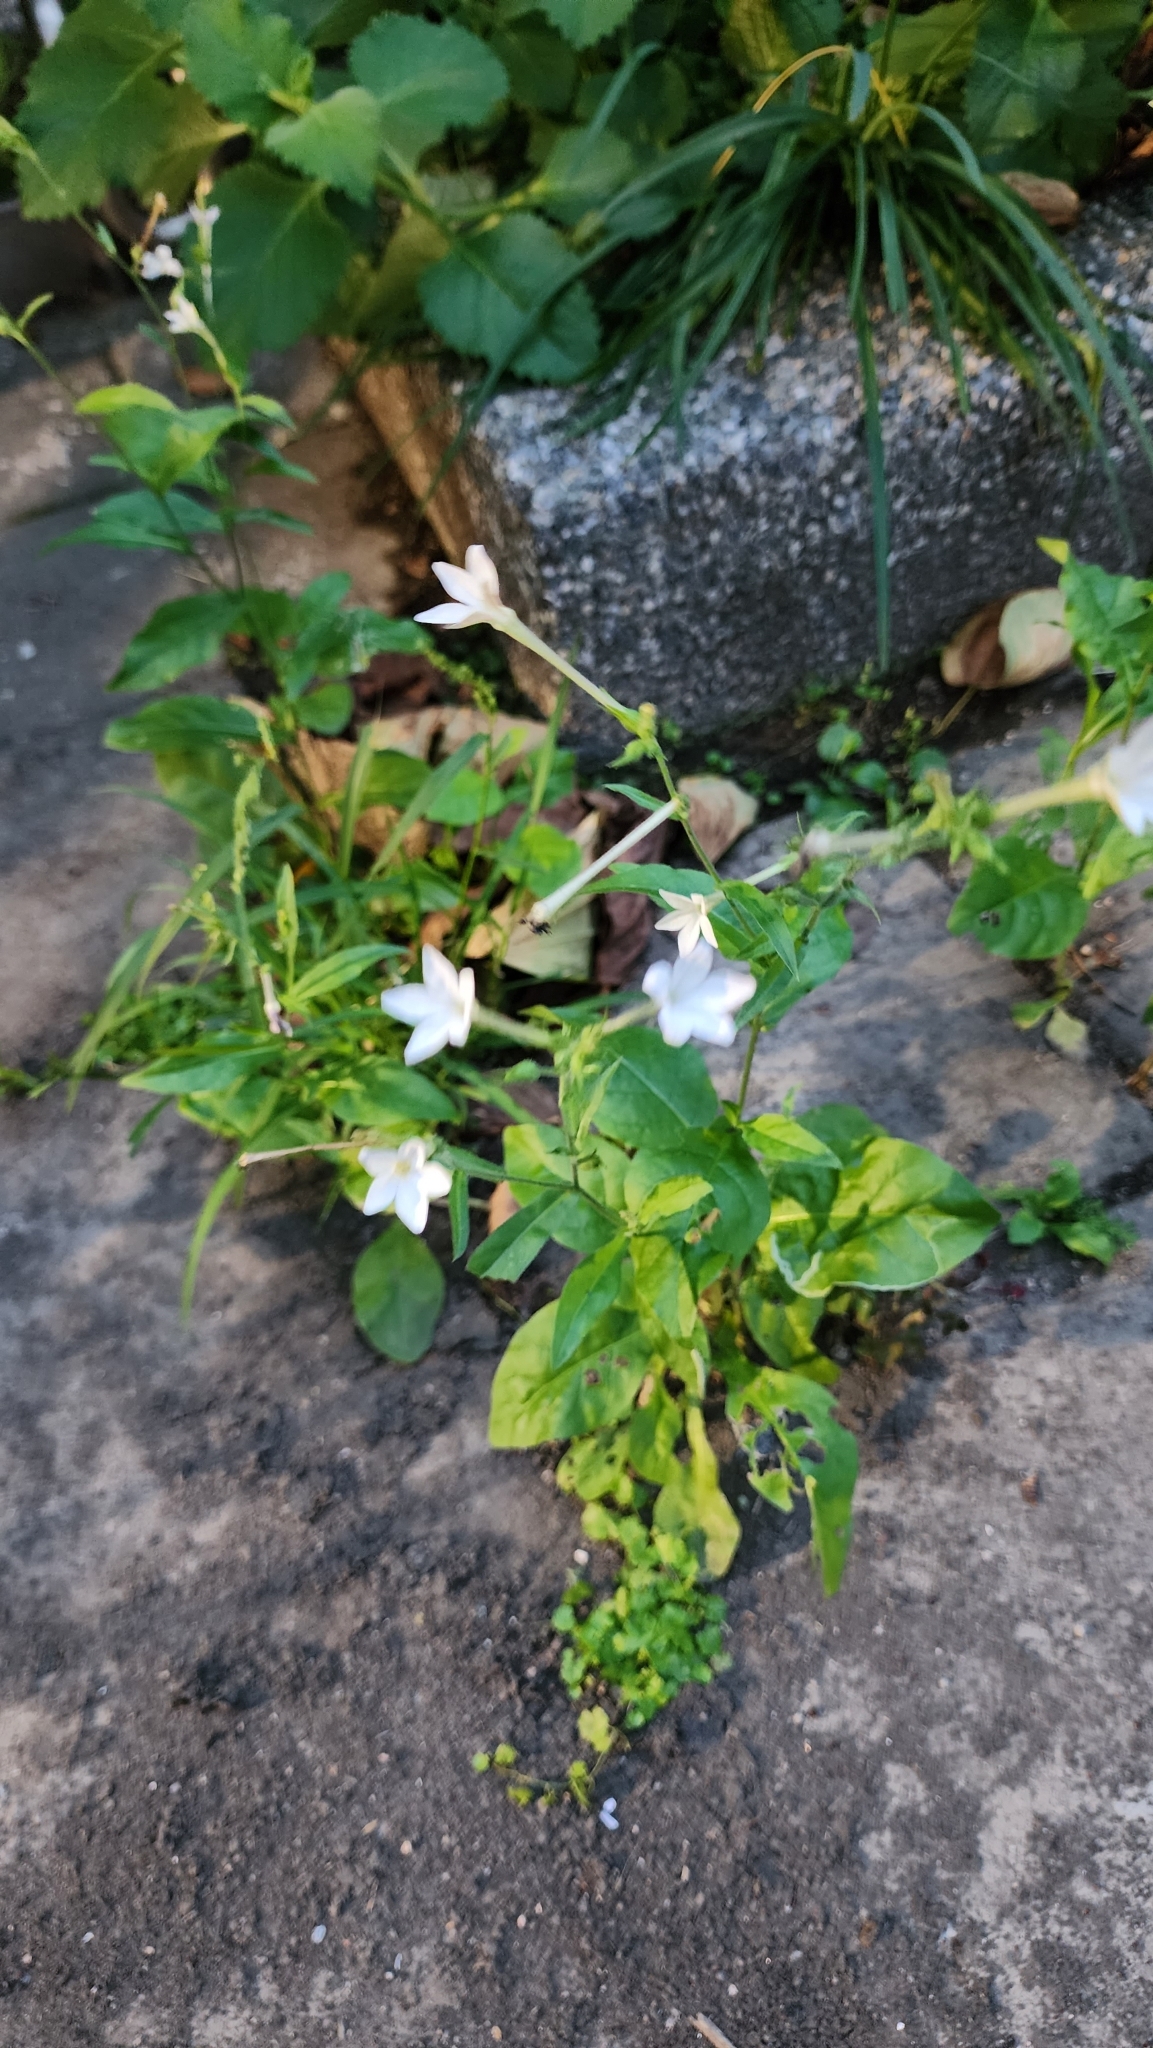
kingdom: Plantae
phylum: Tracheophyta
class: Magnoliopsida
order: Solanales
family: Solanaceae
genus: Nicotiana
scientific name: Nicotiana plumbaginifolia
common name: Tex-mex tobacco
